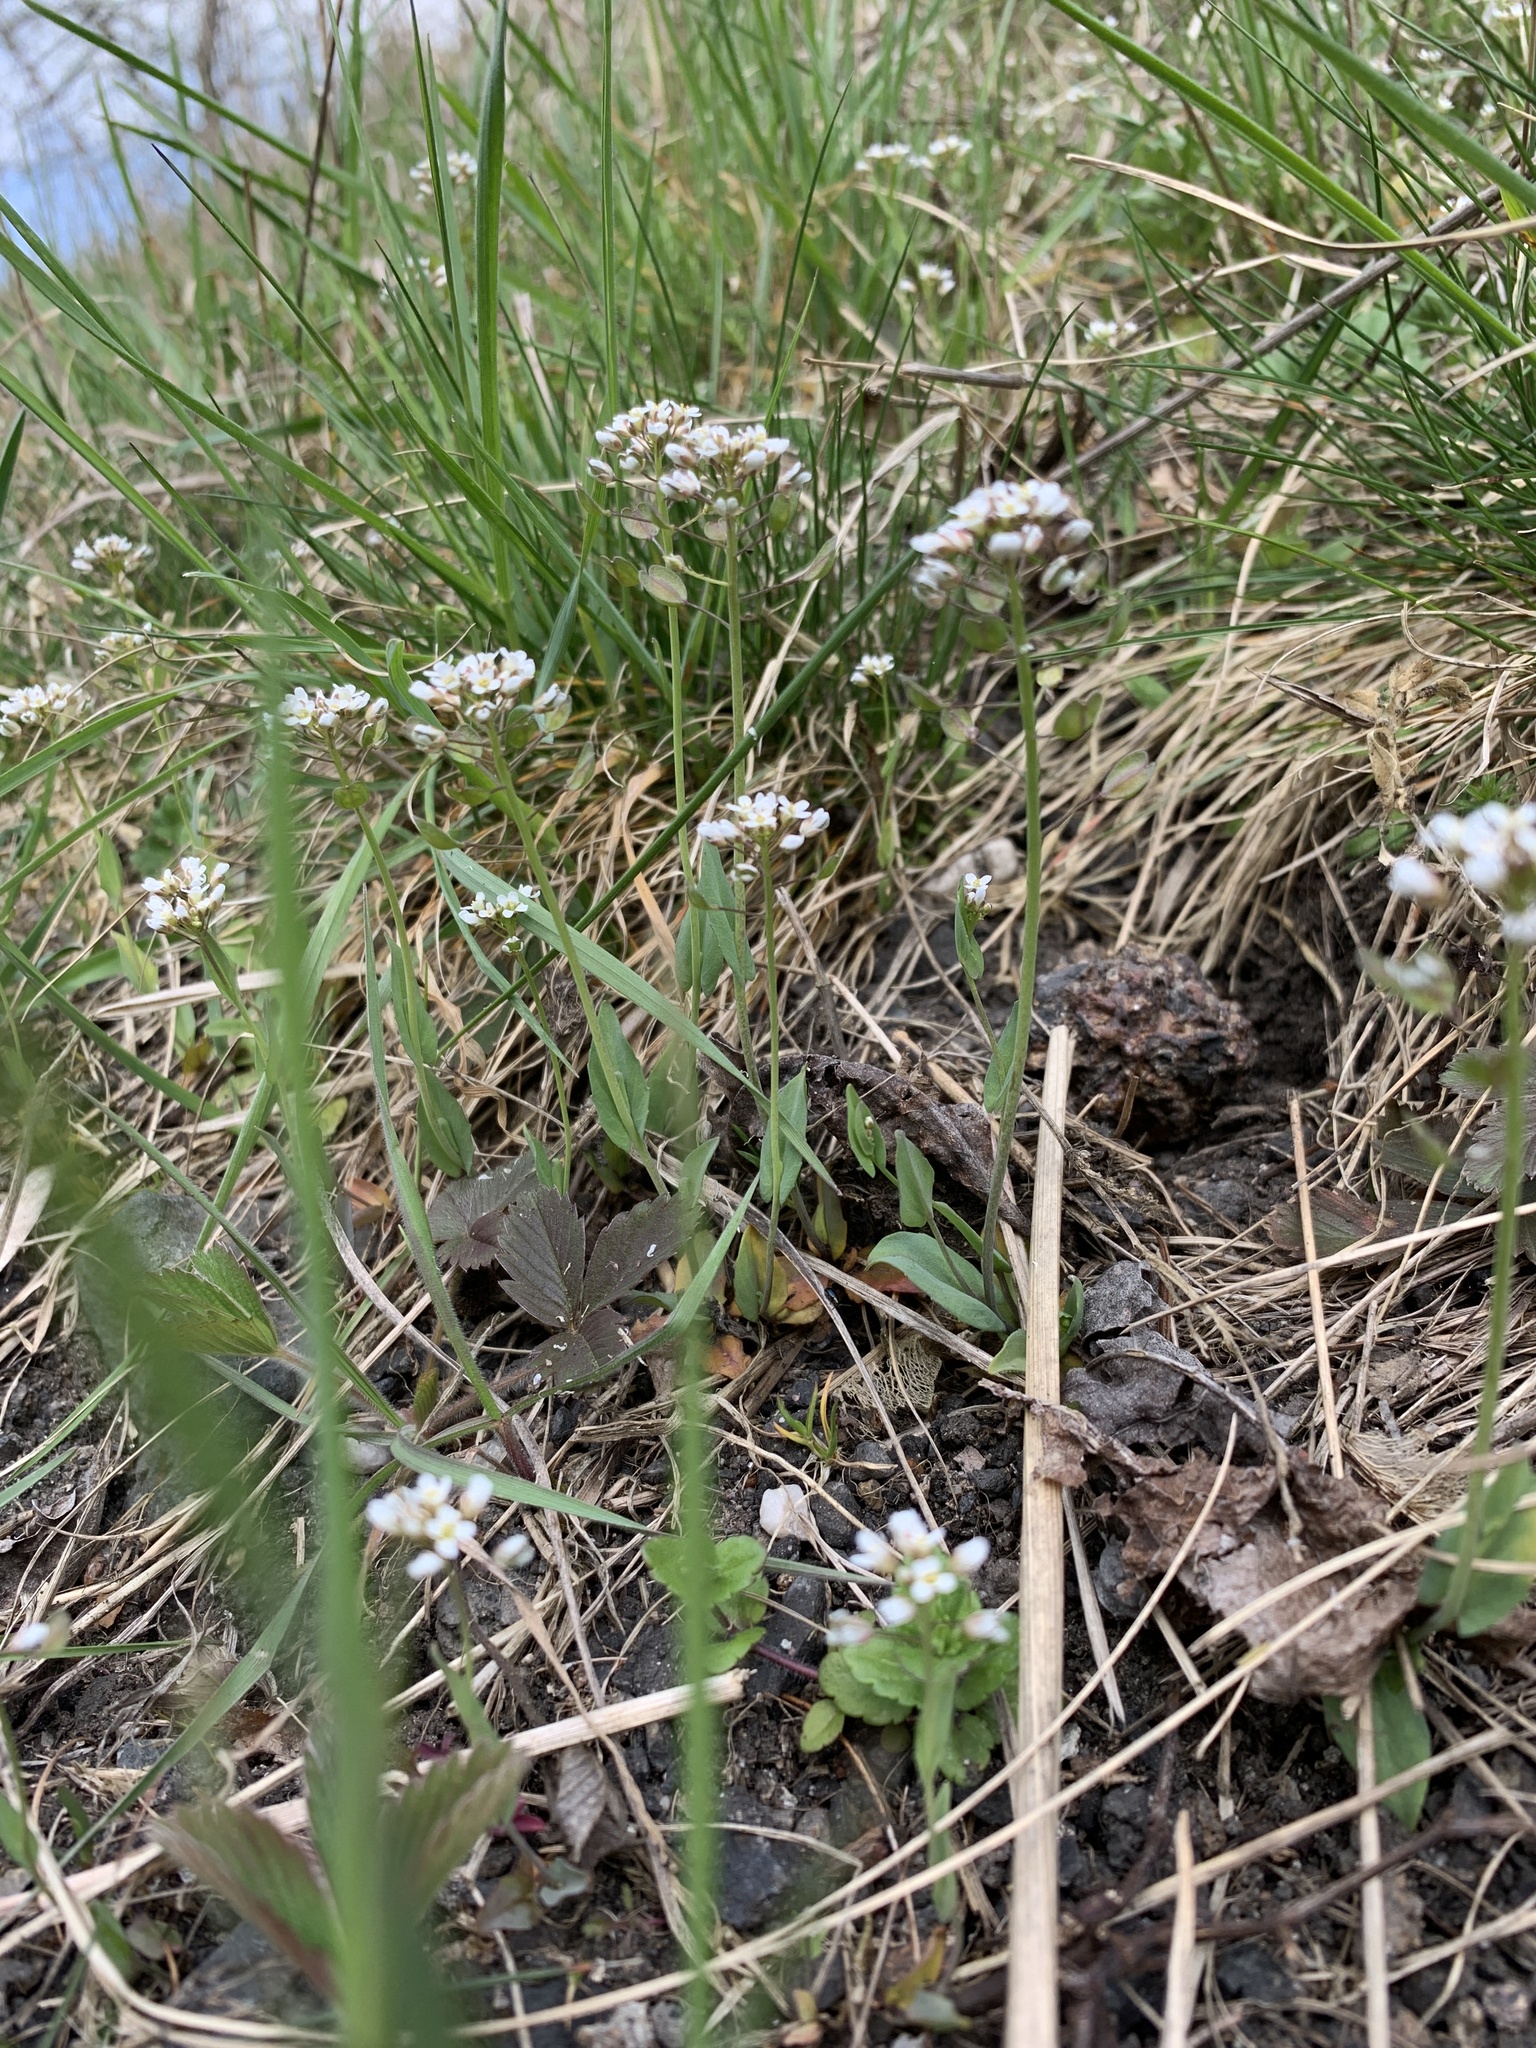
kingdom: Plantae
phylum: Tracheophyta
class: Magnoliopsida
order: Brassicales
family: Brassicaceae
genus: Noccaea
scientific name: Noccaea perfoliata
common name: Perfoliate pennycress
